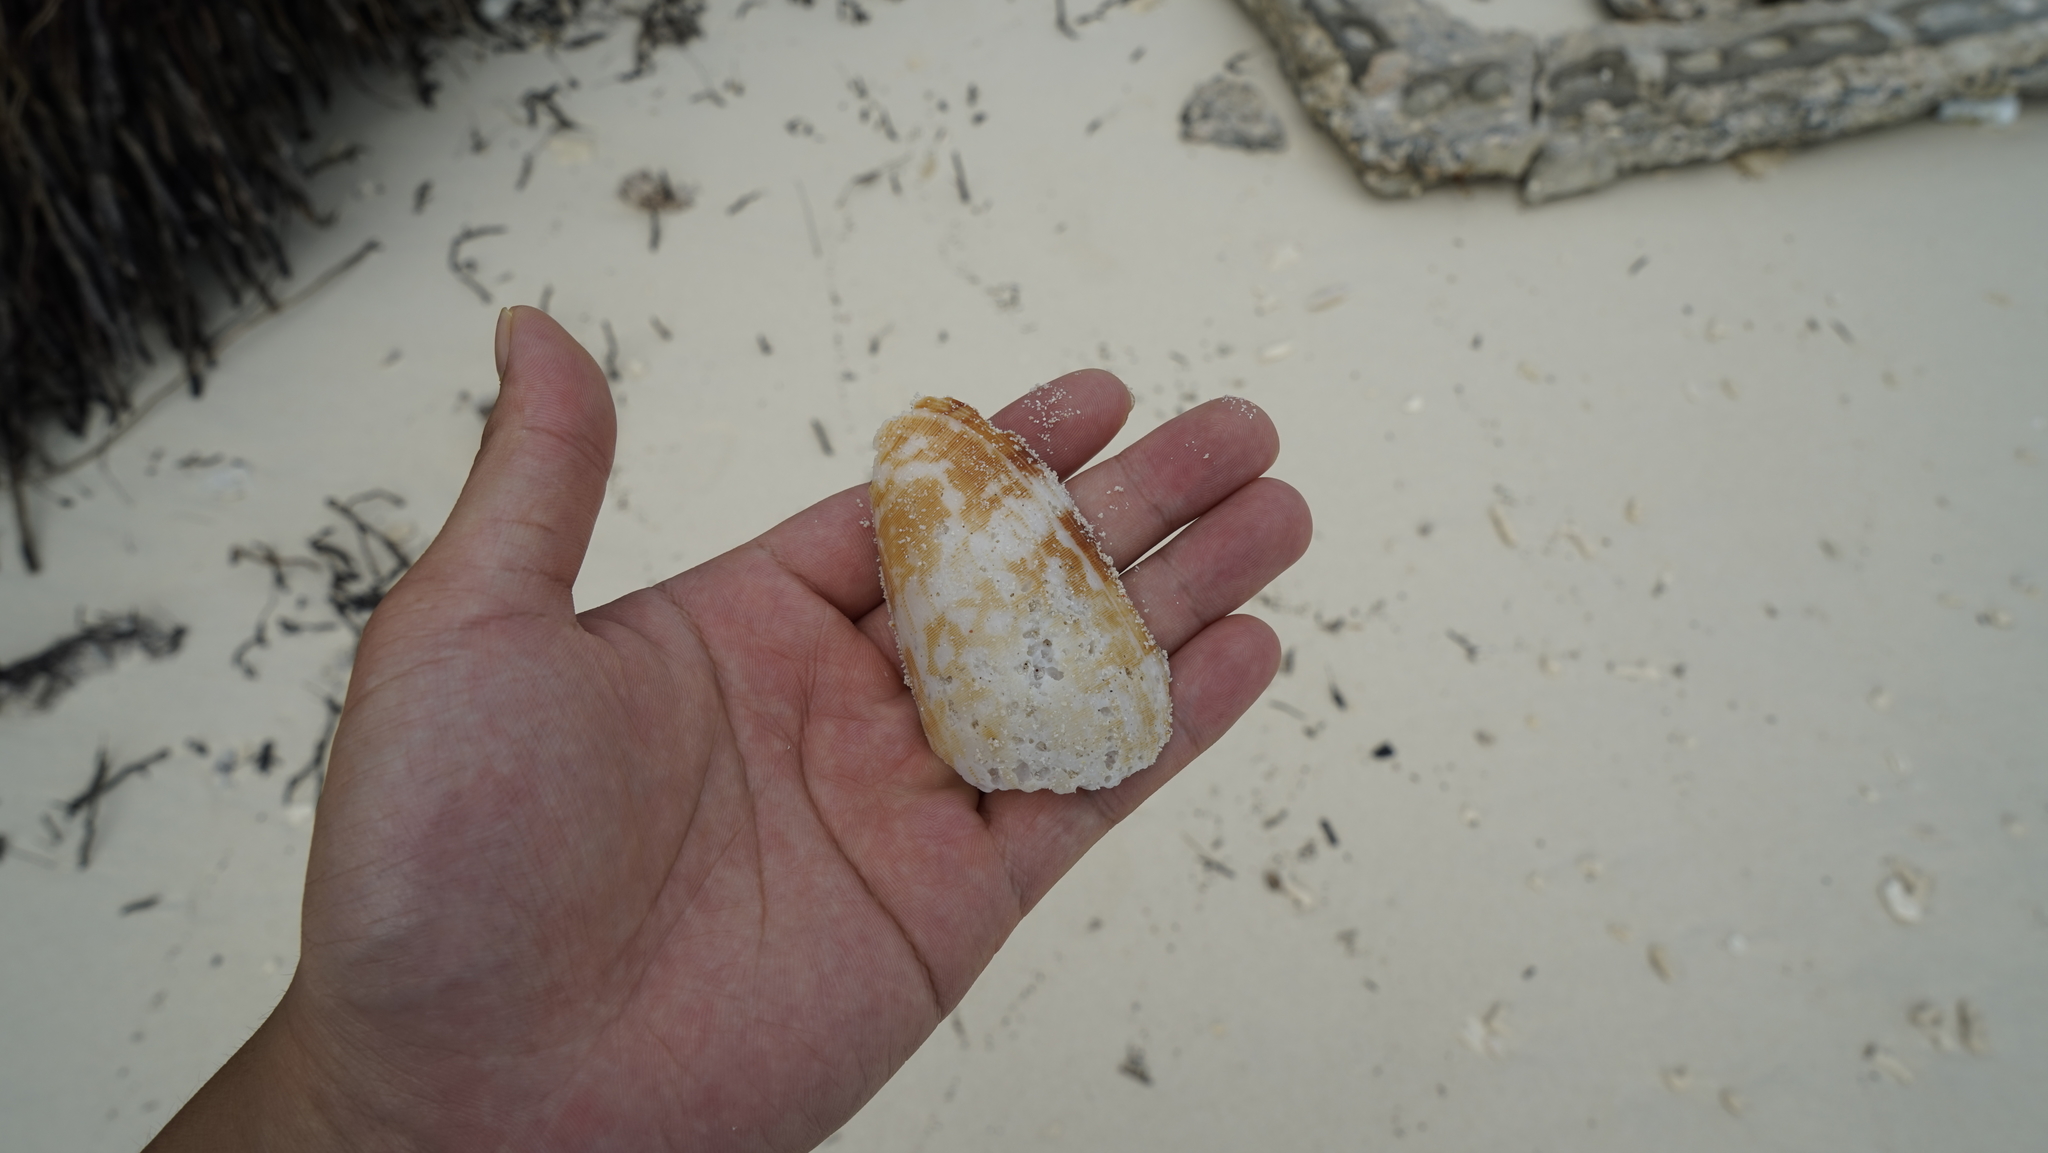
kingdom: Animalia
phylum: Mollusca
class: Gastropoda
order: Neogastropoda
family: Conidae
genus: Conus
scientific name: Conus striatus
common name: Striated cone
